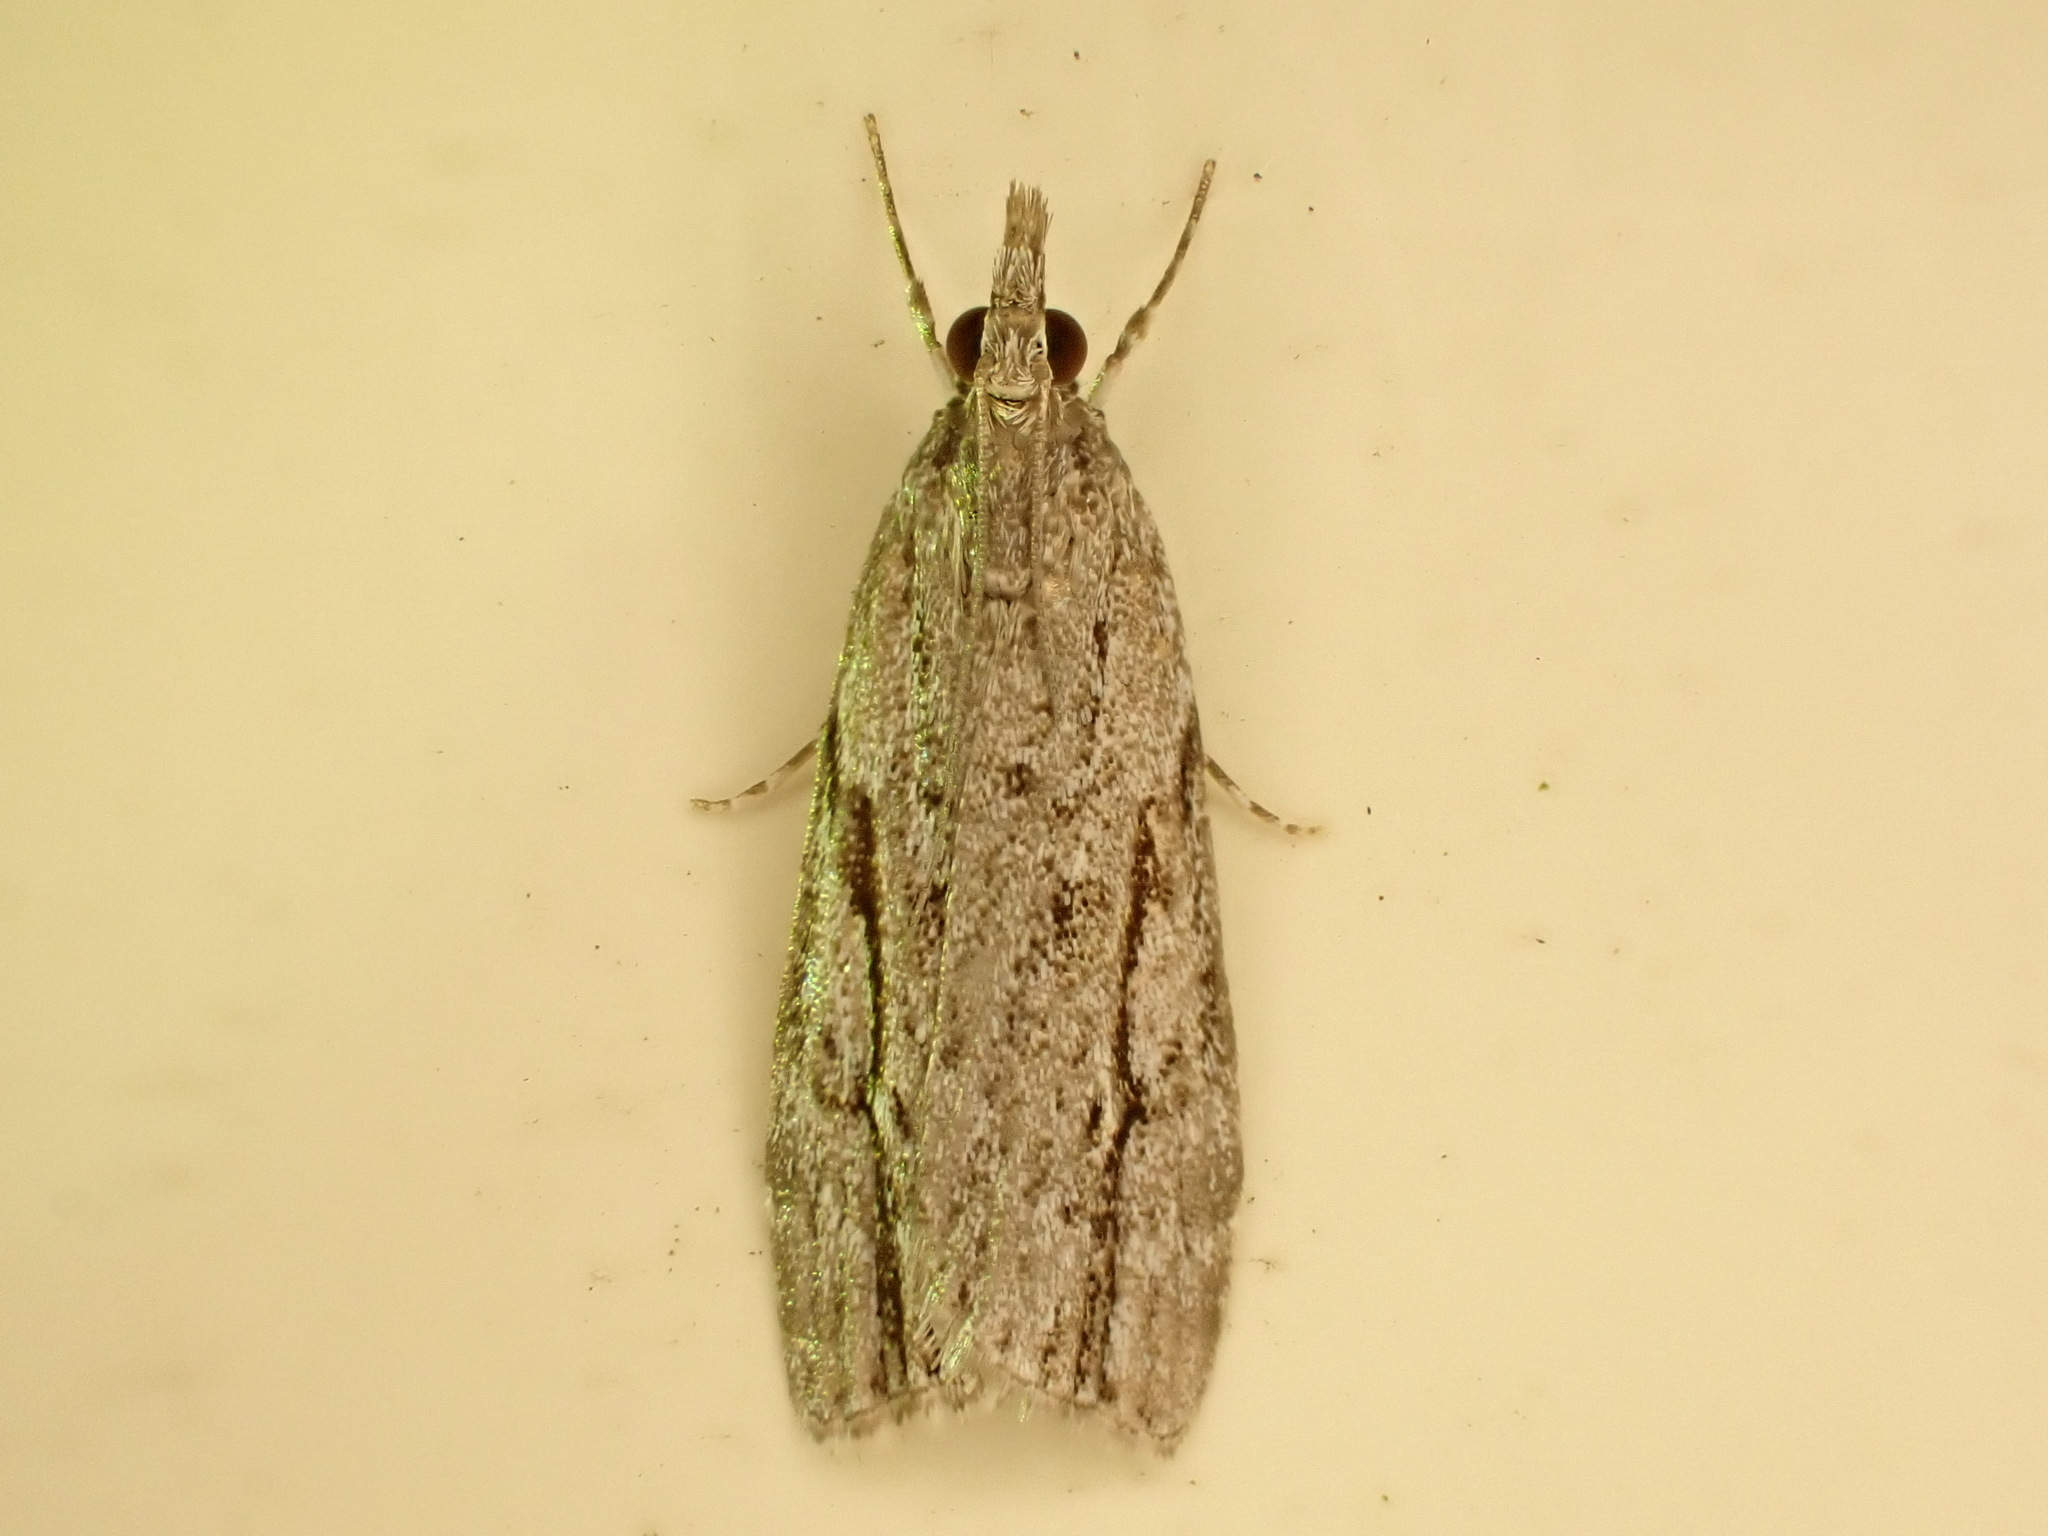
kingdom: Animalia
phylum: Arthropoda
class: Insecta
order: Lepidoptera
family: Crambidae
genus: Eudonia
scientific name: Eudonia bisinualis
